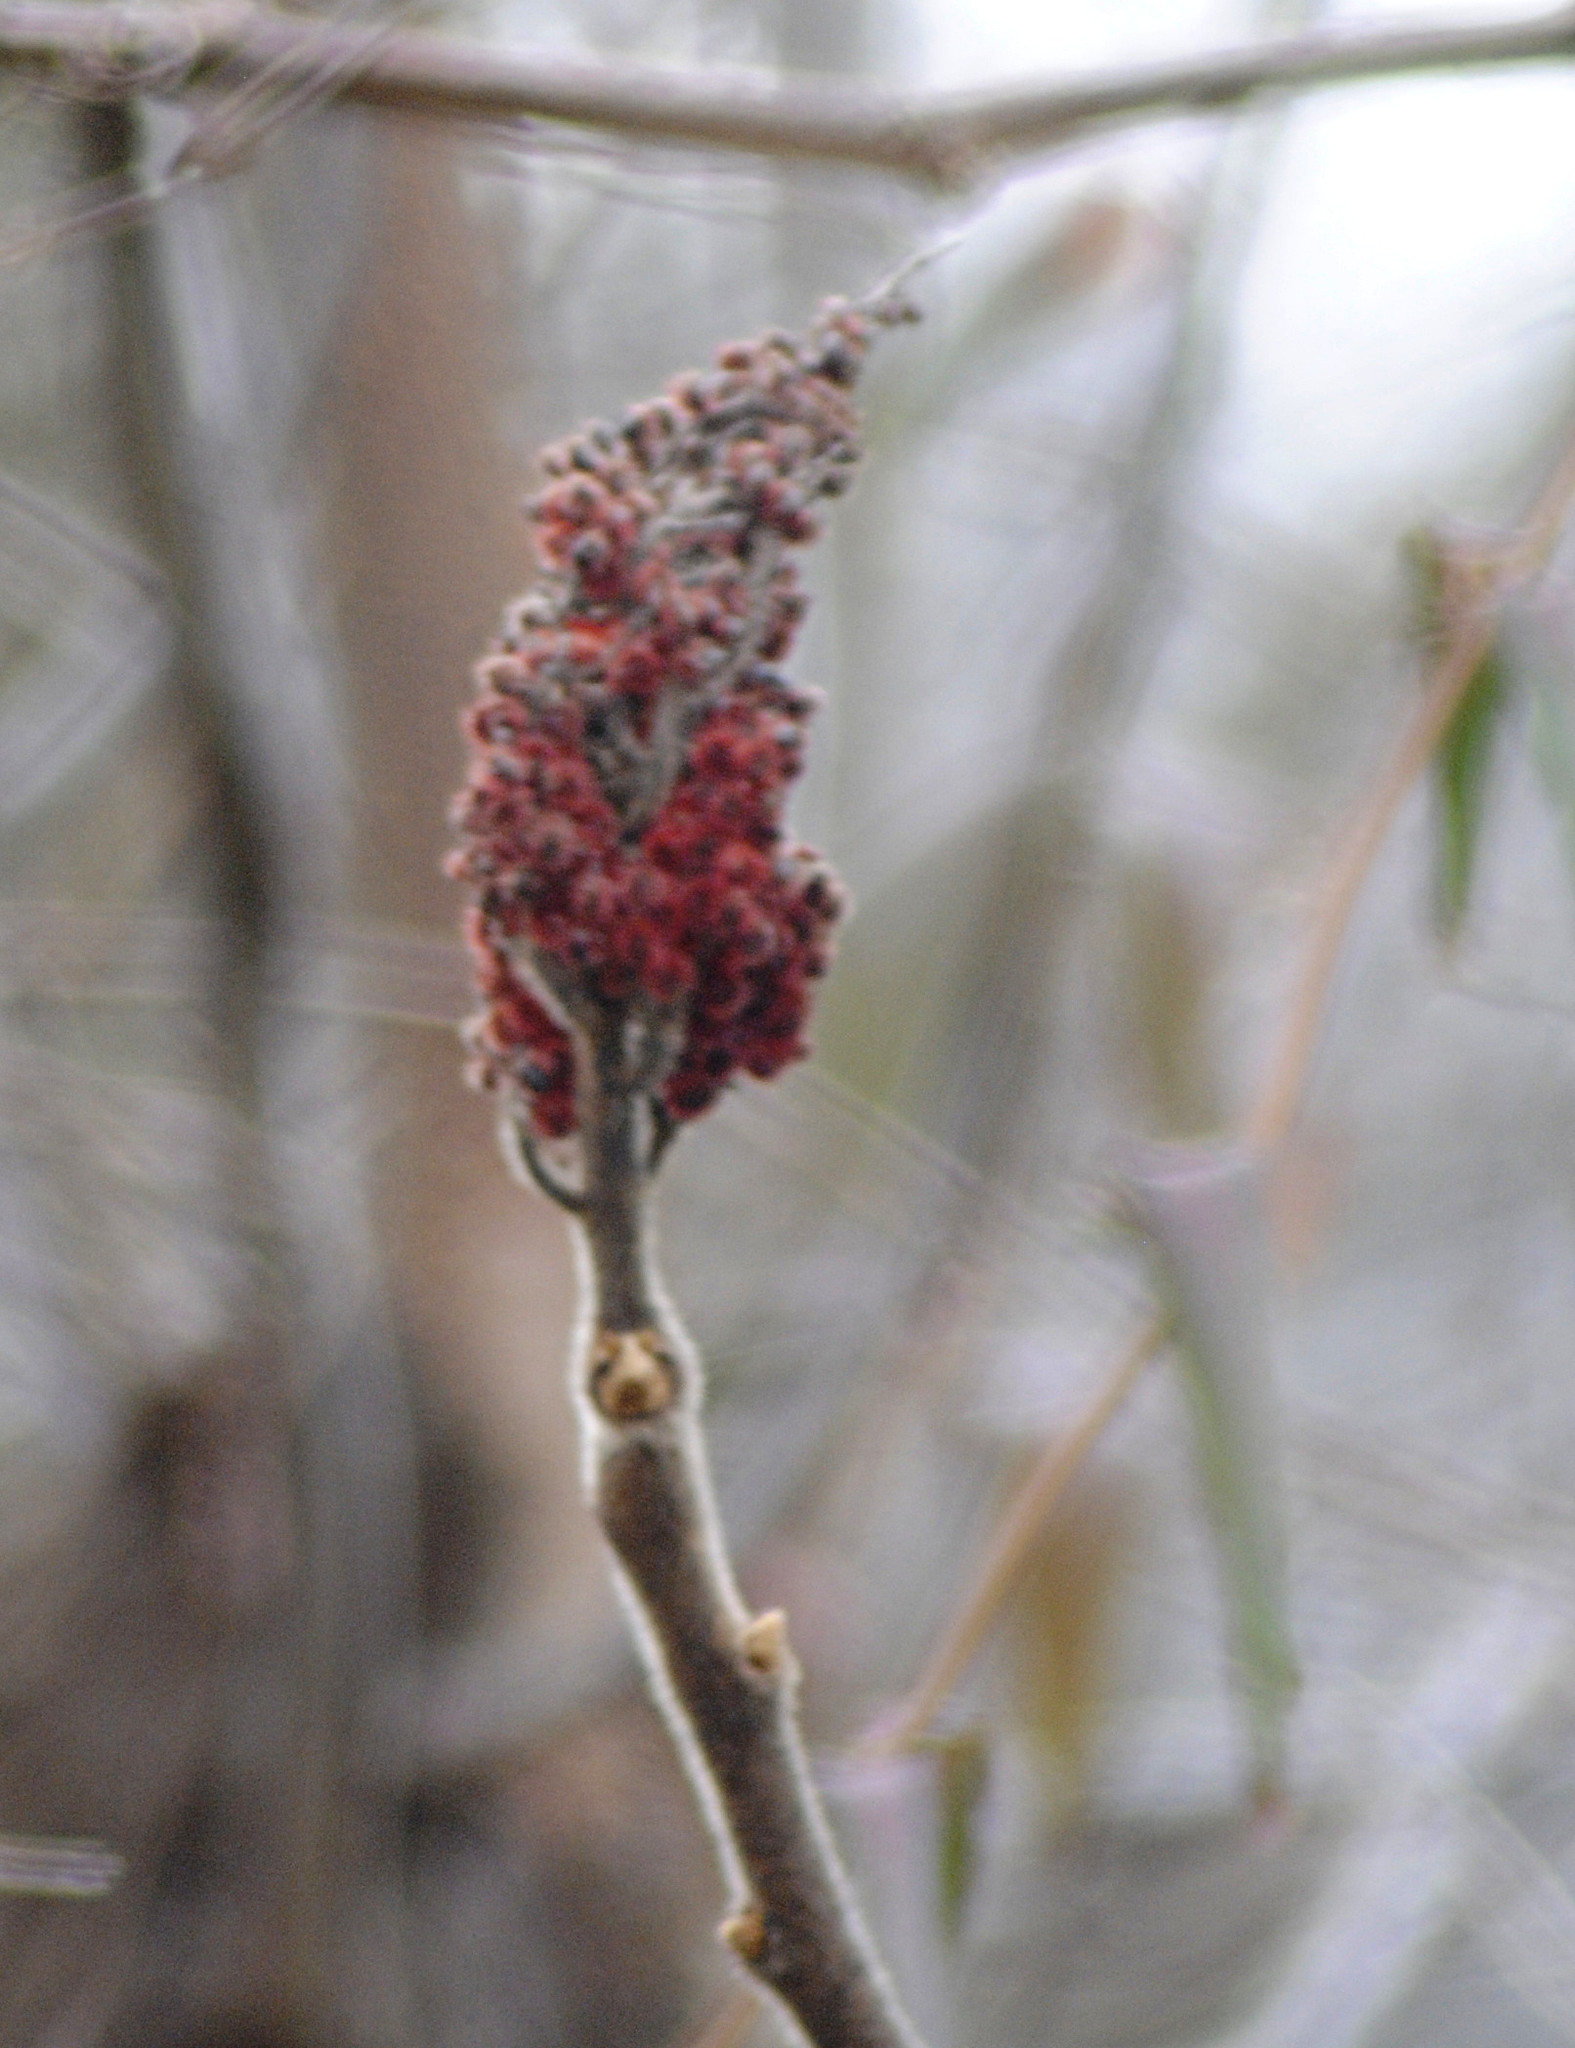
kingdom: Plantae
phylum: Tracheophyta
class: Magnoliopsida
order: Sapindales
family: Anacardiaceae
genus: Rhus
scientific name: Rhus typhina
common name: Staghorn sumac
